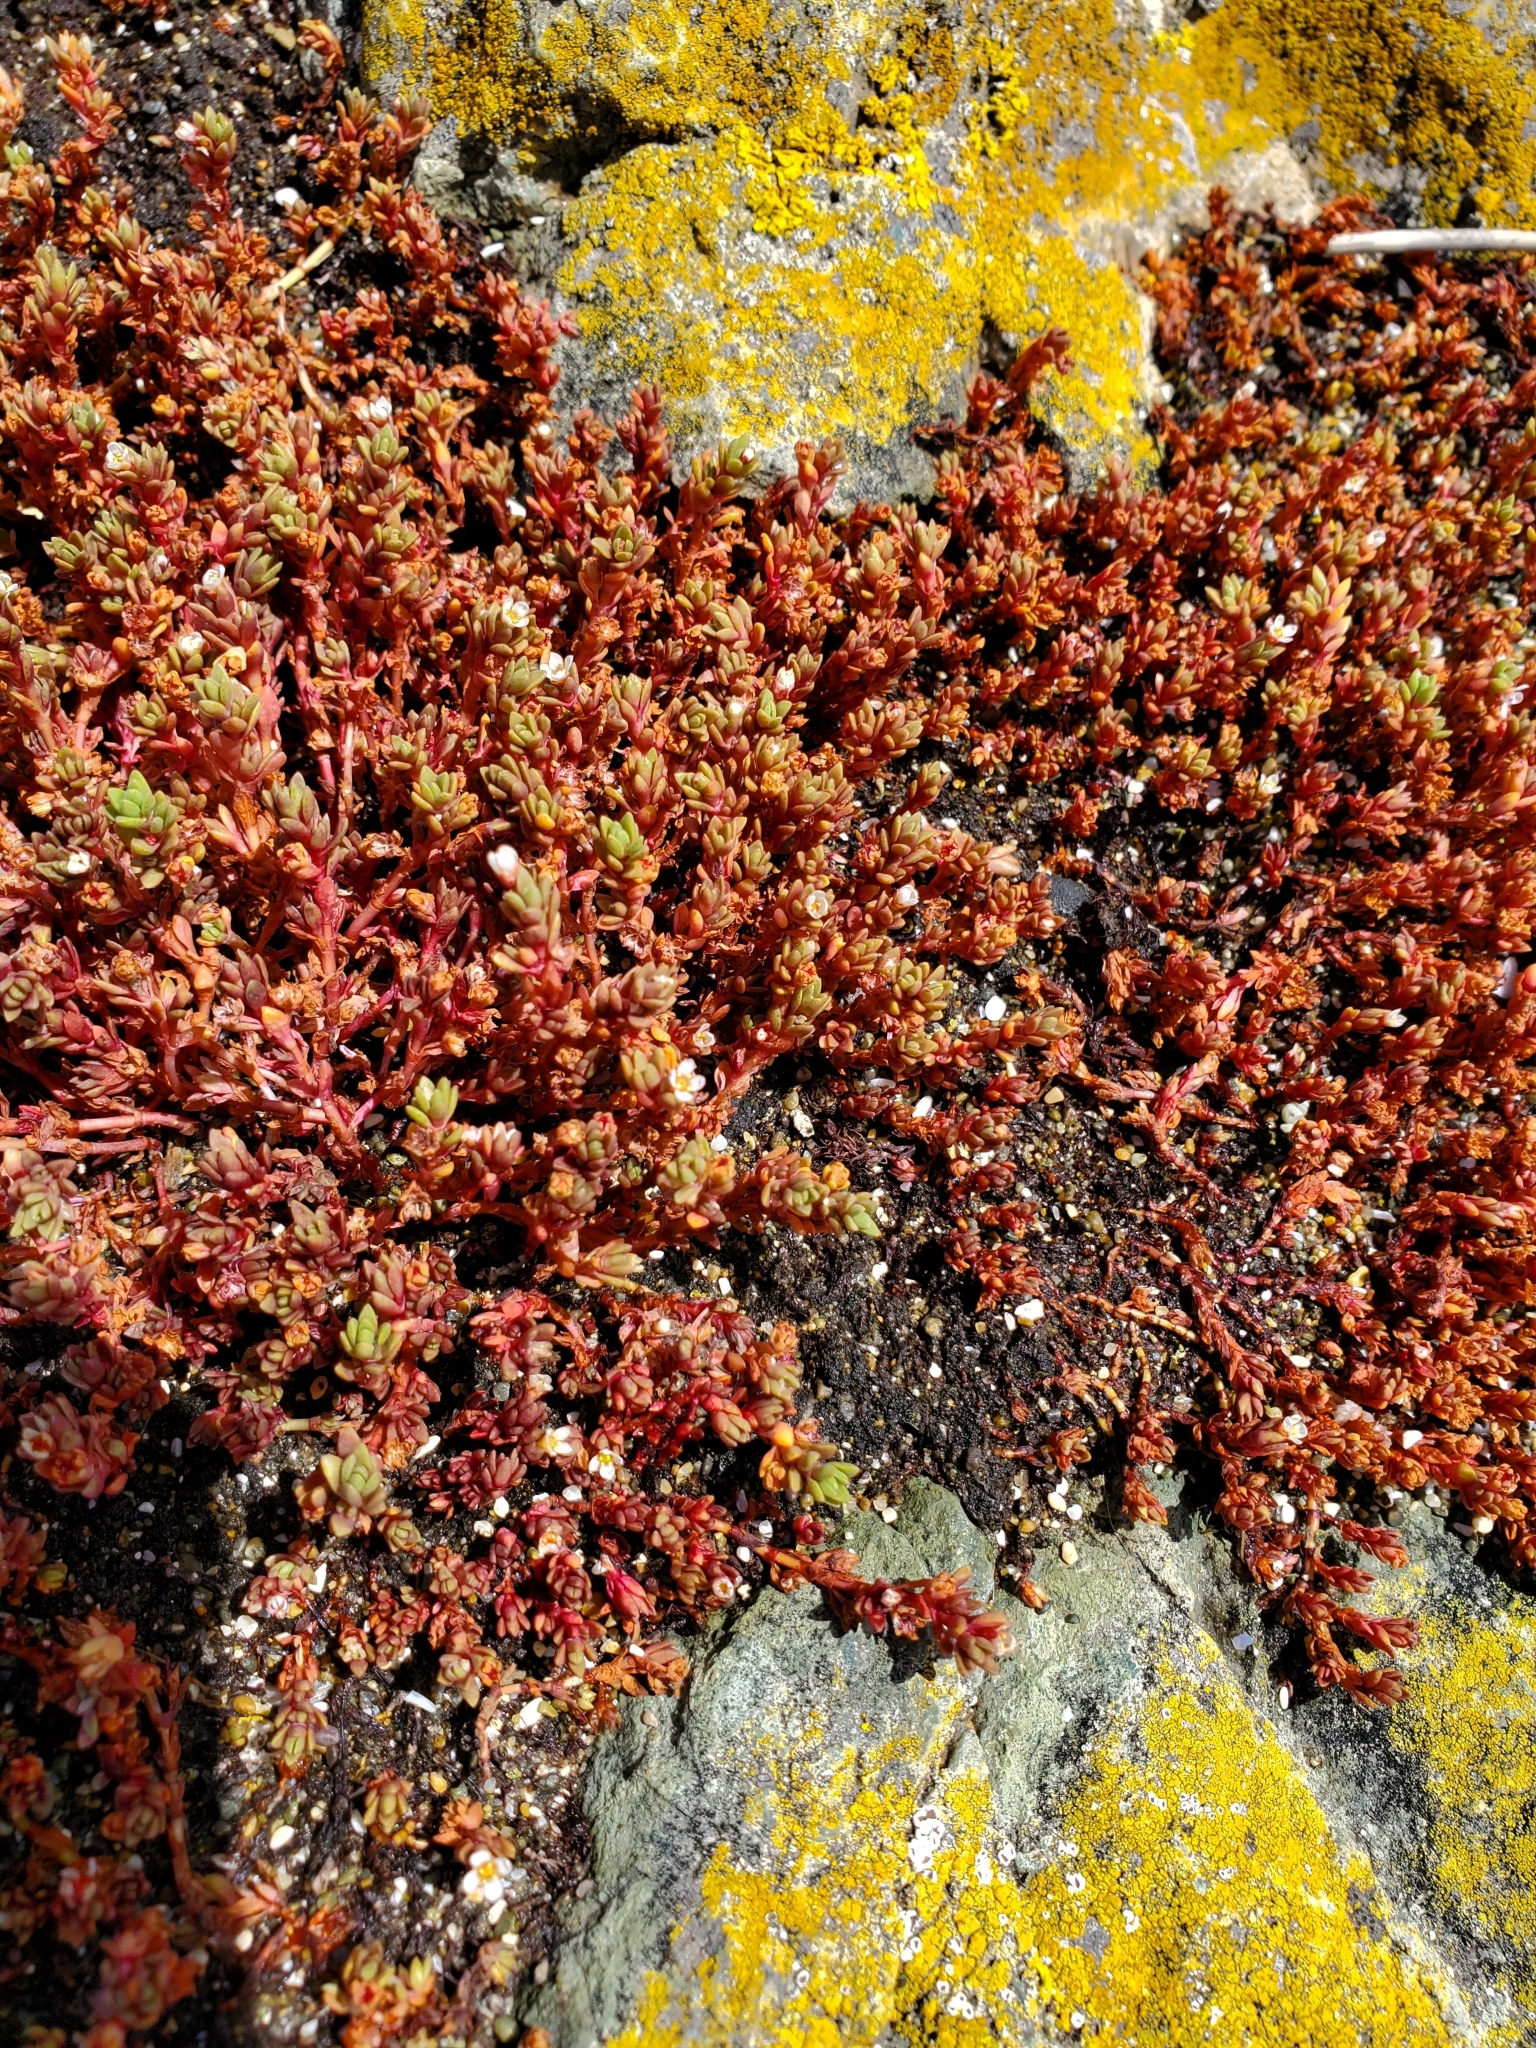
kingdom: Plantae
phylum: Tracheophyta
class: Magnoliopsida
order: Saxifragales
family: Crassulaceae
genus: Crassula
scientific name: Crassula moschata
